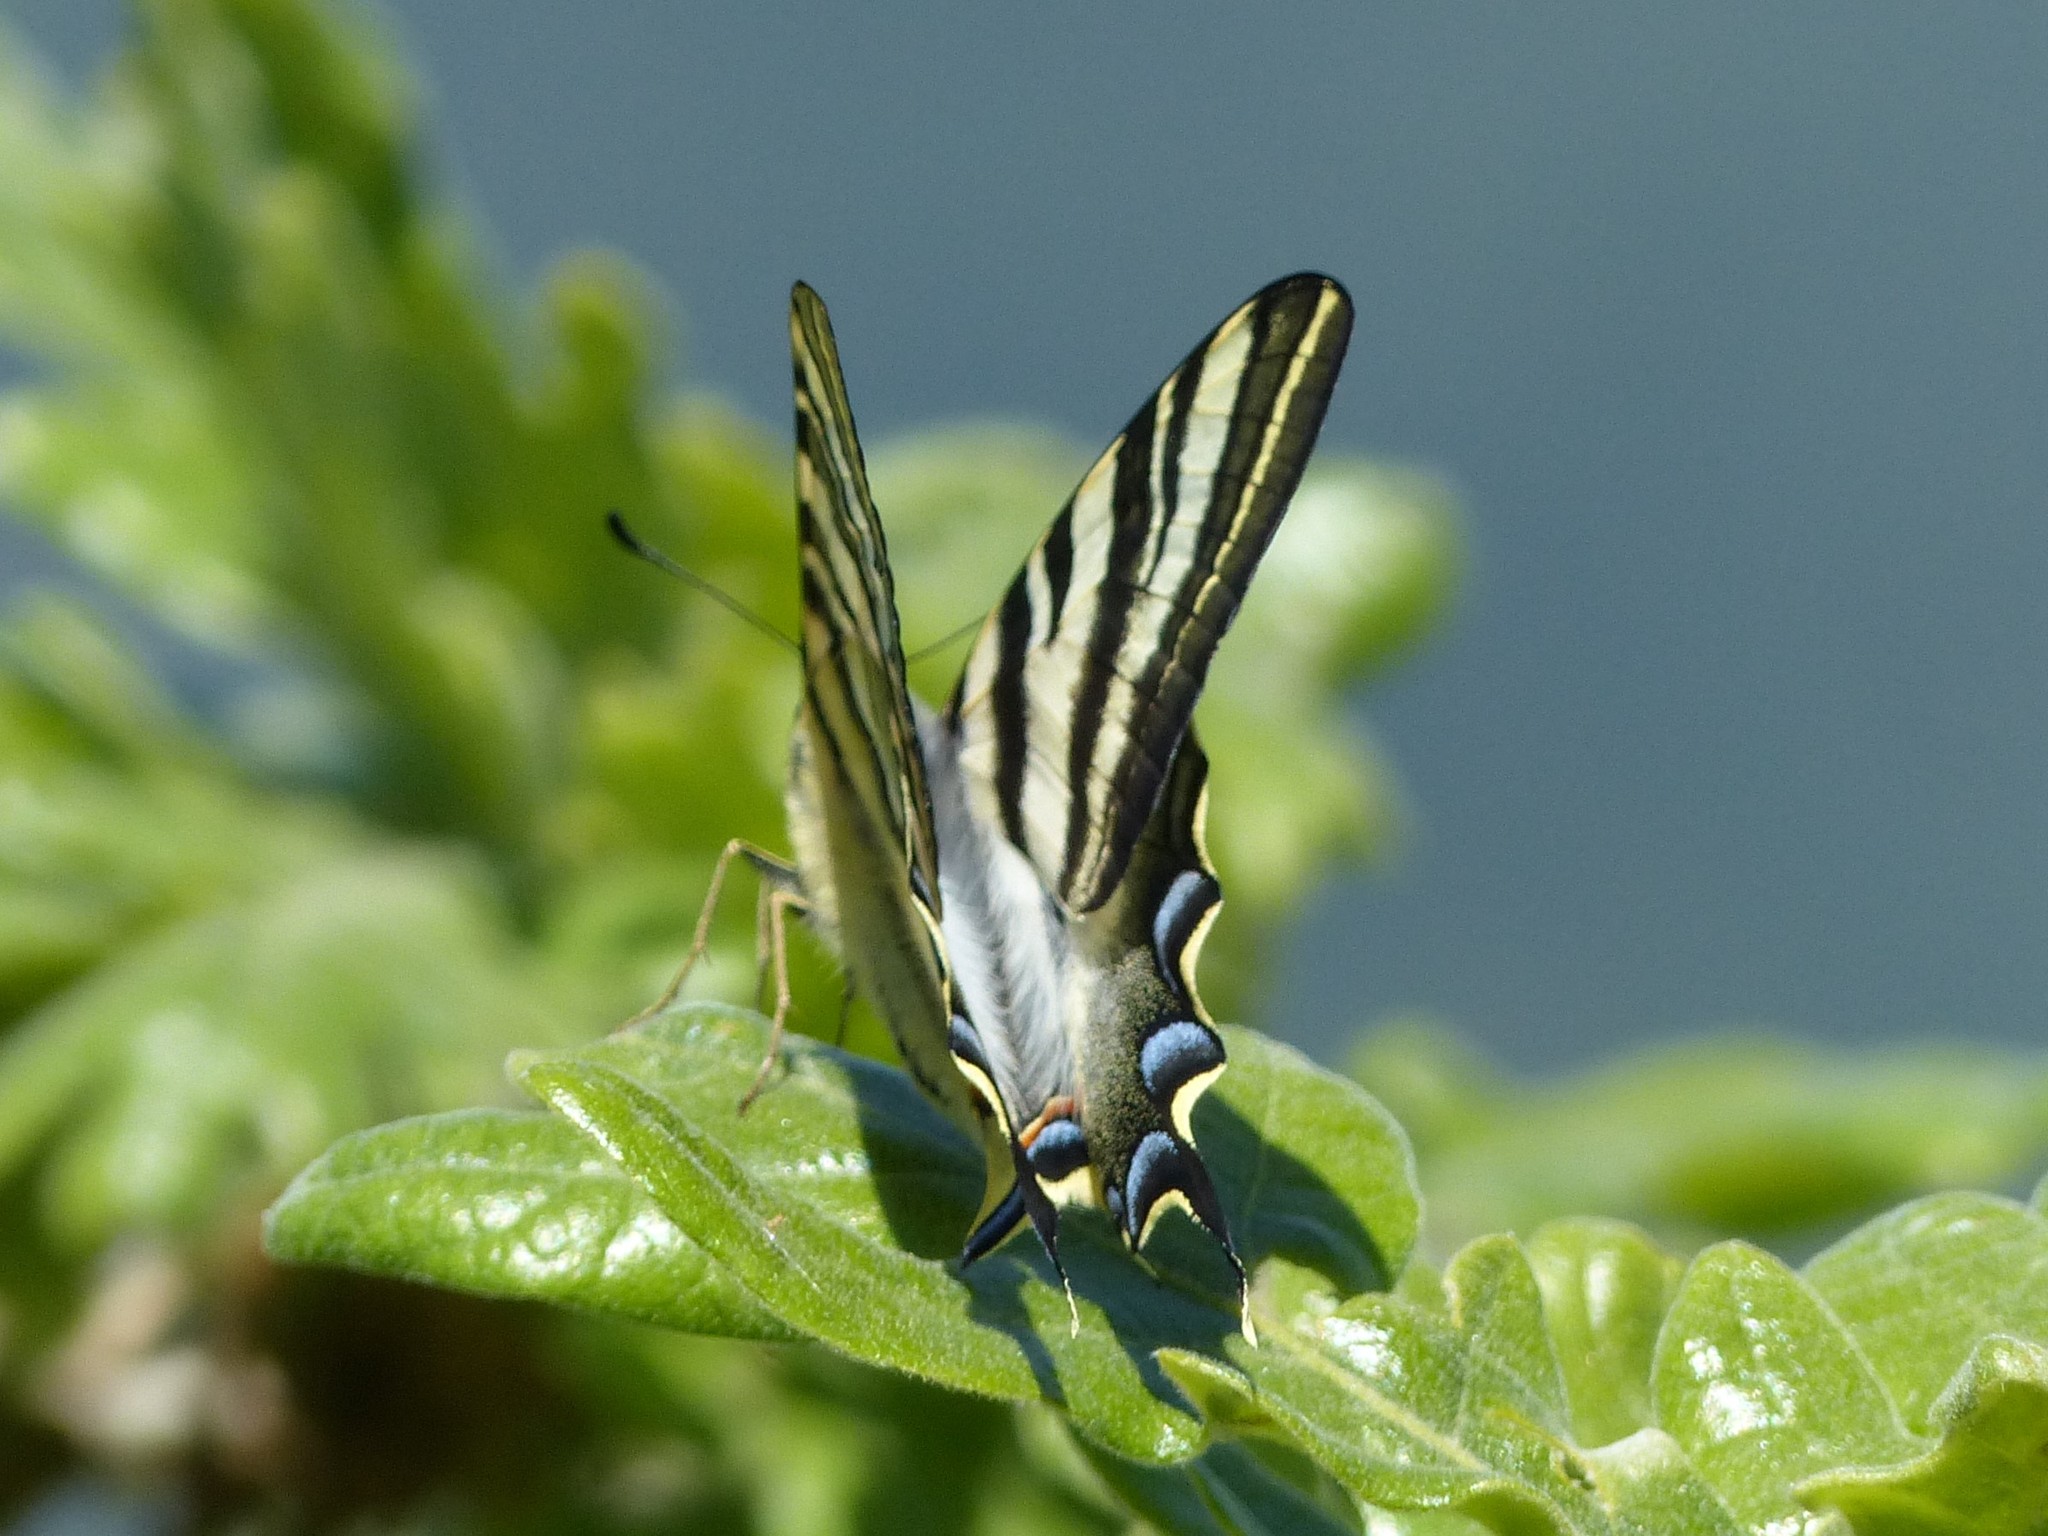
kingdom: Animalia
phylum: Arthropoda
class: Insecta
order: Lepidoptera
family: Papilionidae
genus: Iphiclides
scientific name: Iphiclides feisthamelii
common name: Iberian scarce swallowtail
